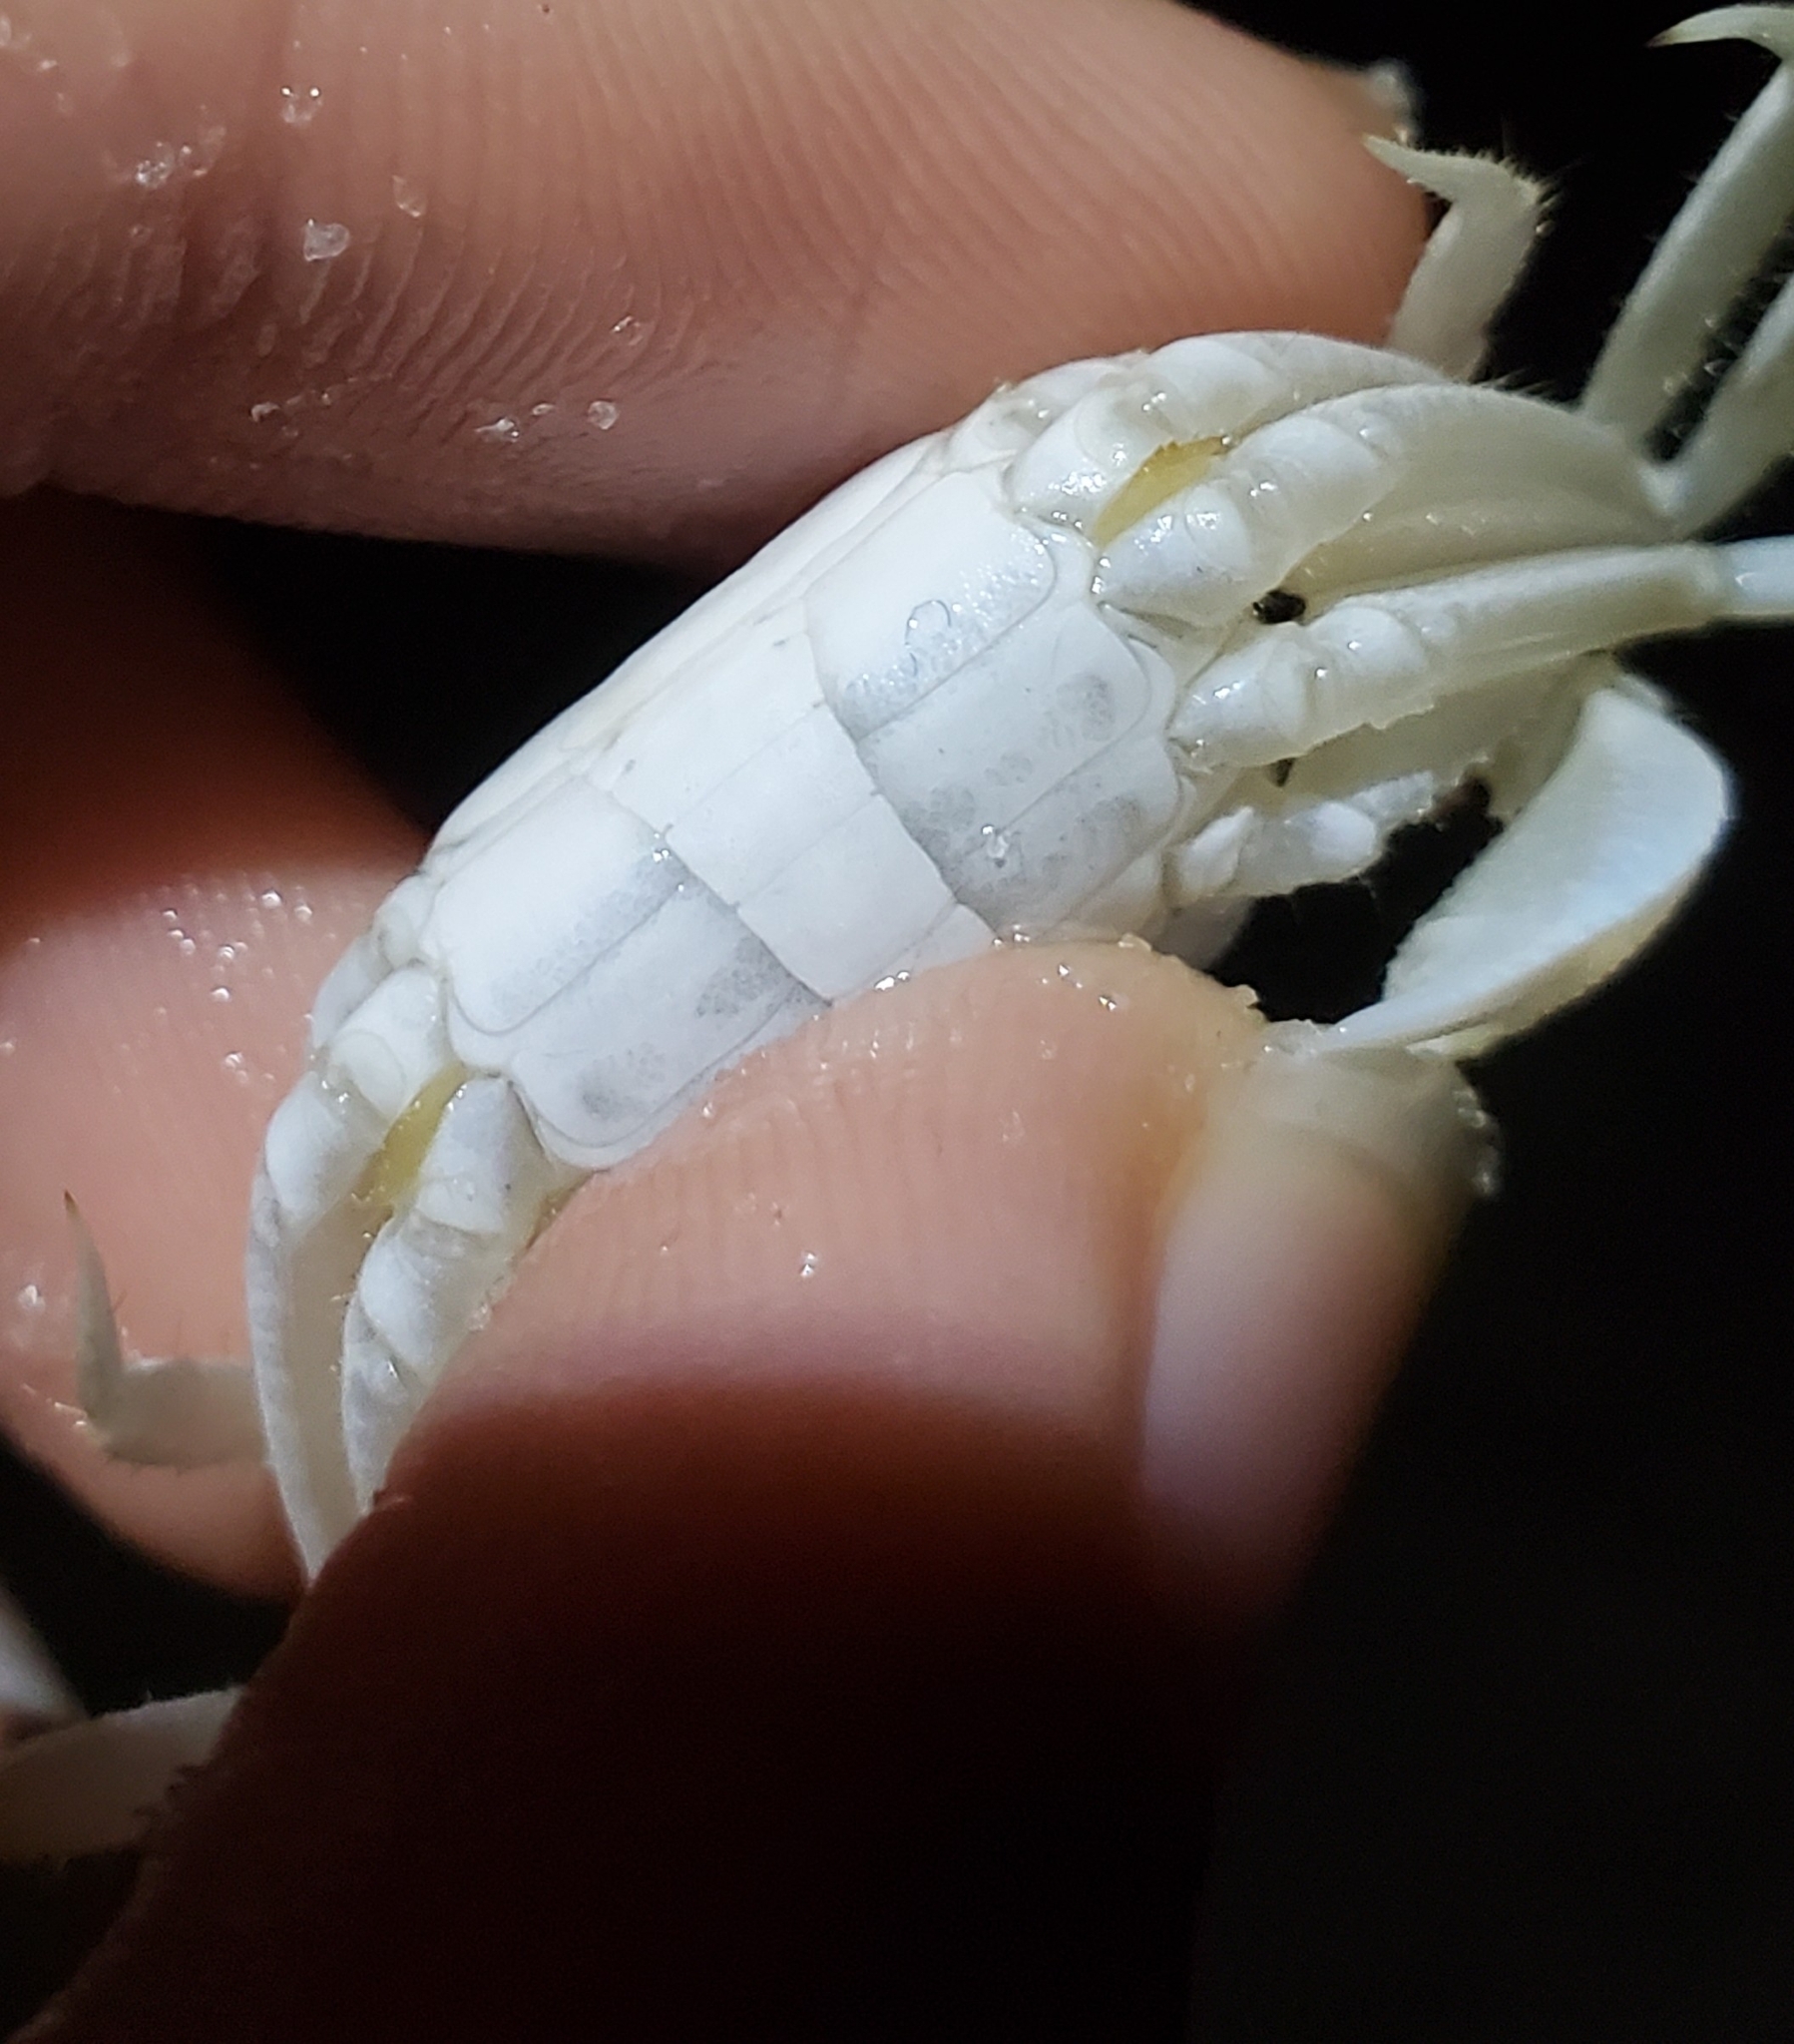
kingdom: Animalia
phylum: Arthropoda
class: Malacostraca
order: Decapoda
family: Ocypodidae
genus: Ocypode
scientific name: Ocypode quadrata
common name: Ghost crab
